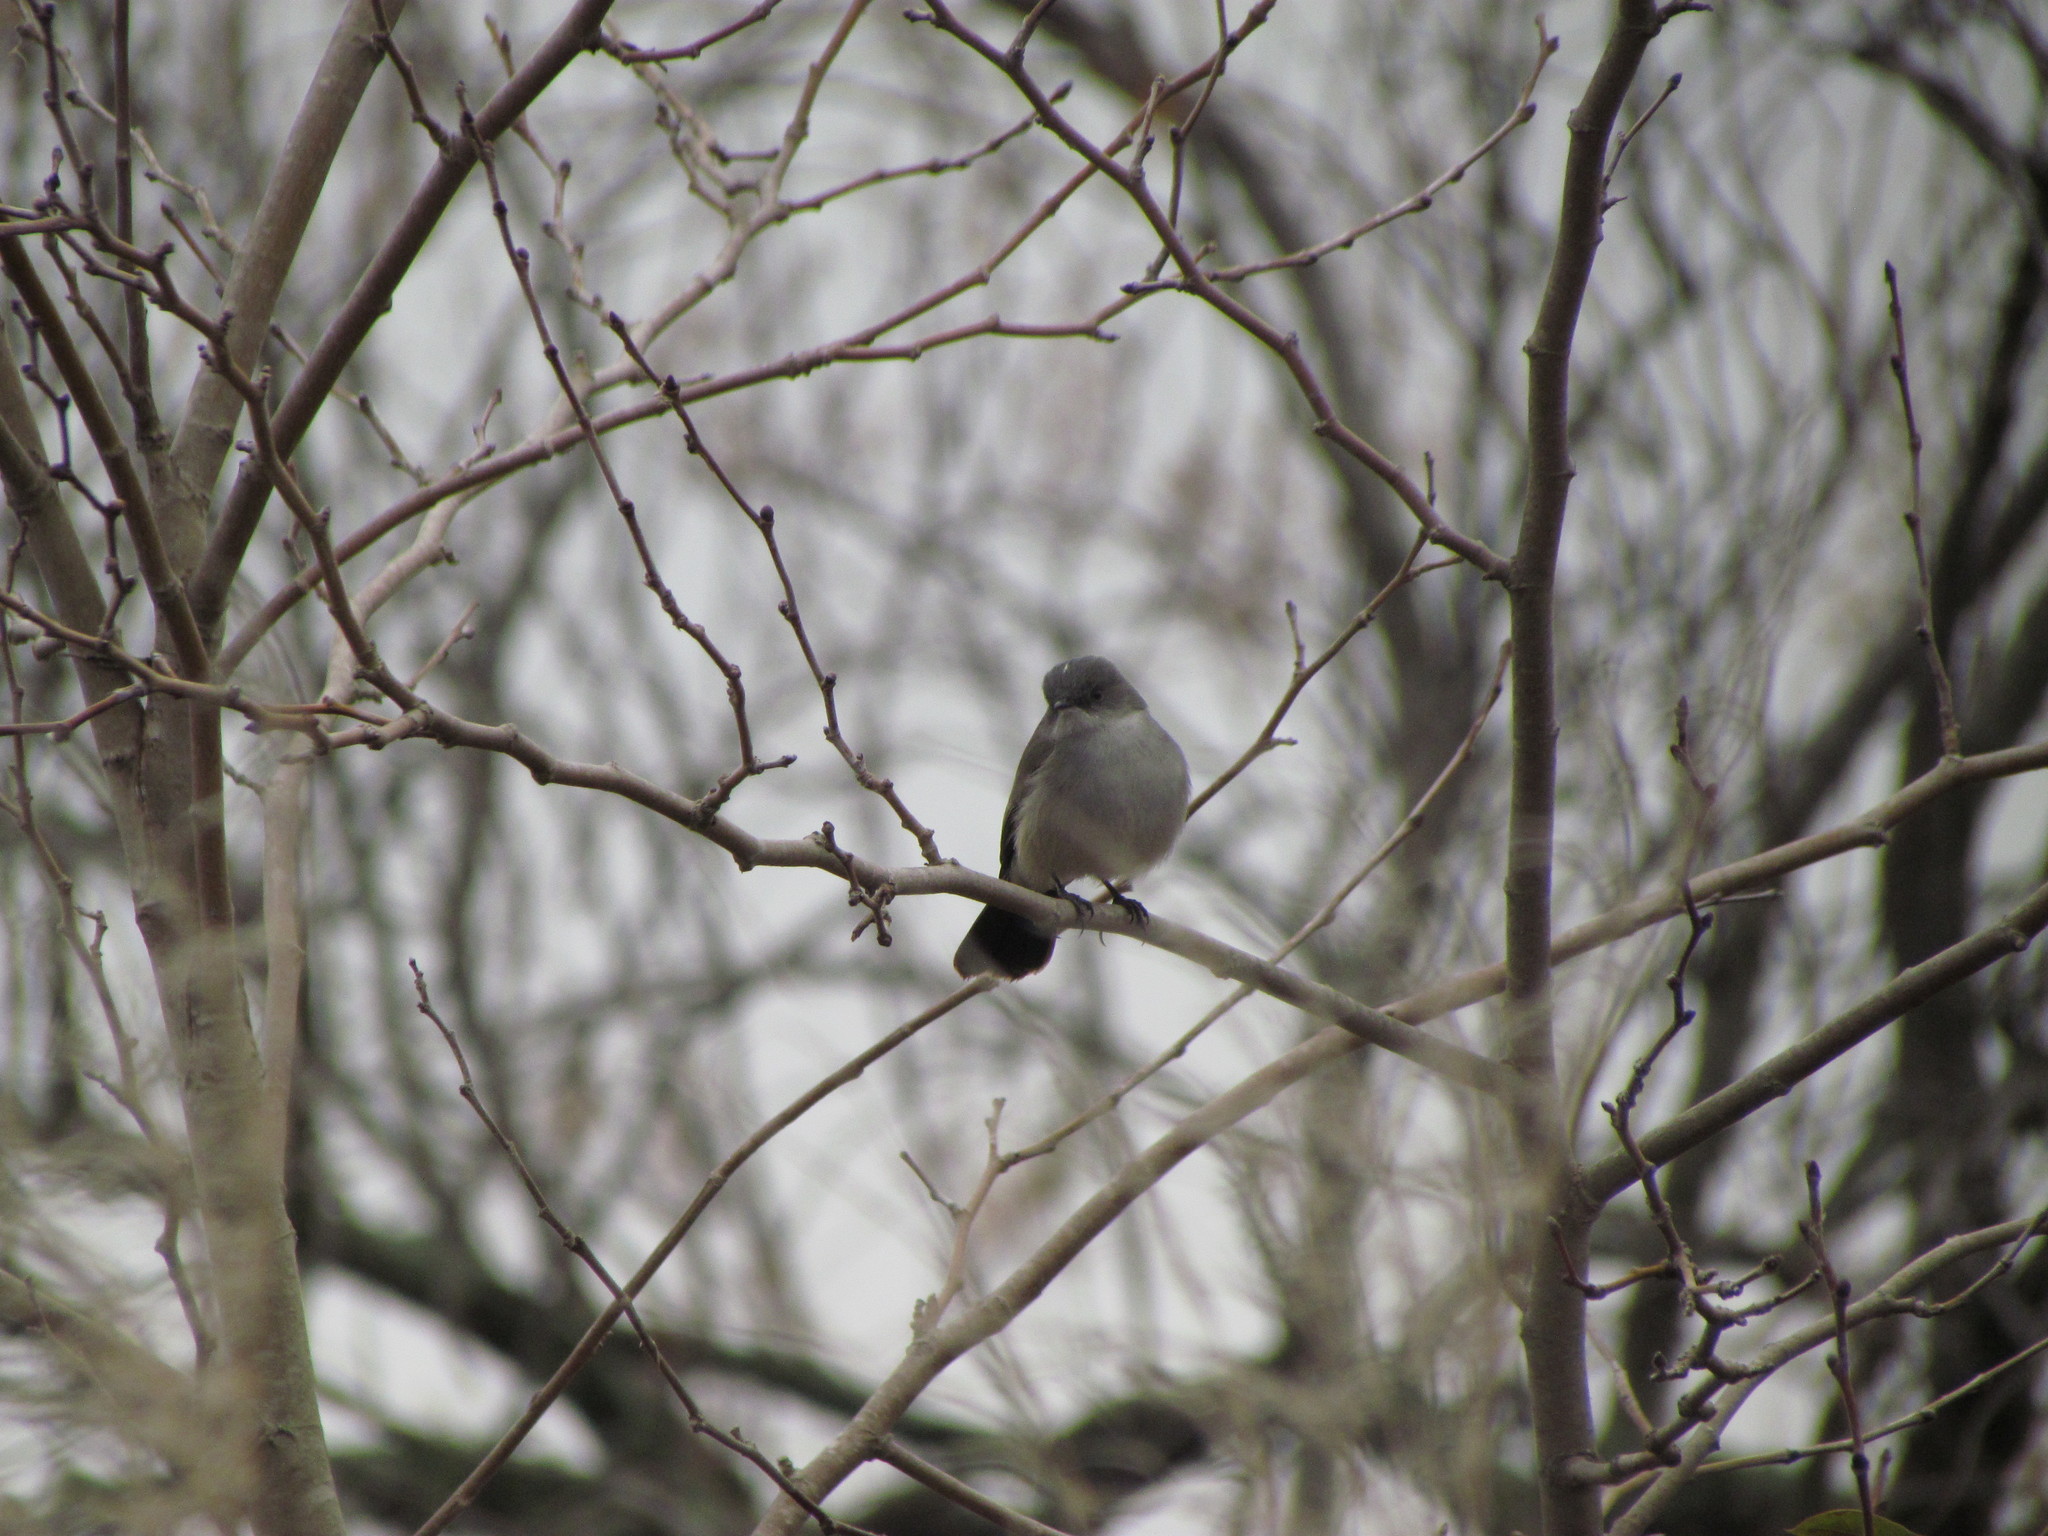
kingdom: Animalia
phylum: Chordata
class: Aves
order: Passeriformes
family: Tyrannidae
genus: Serpophaga
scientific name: Serpophaga nigricans
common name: Sooty tyrannulet
